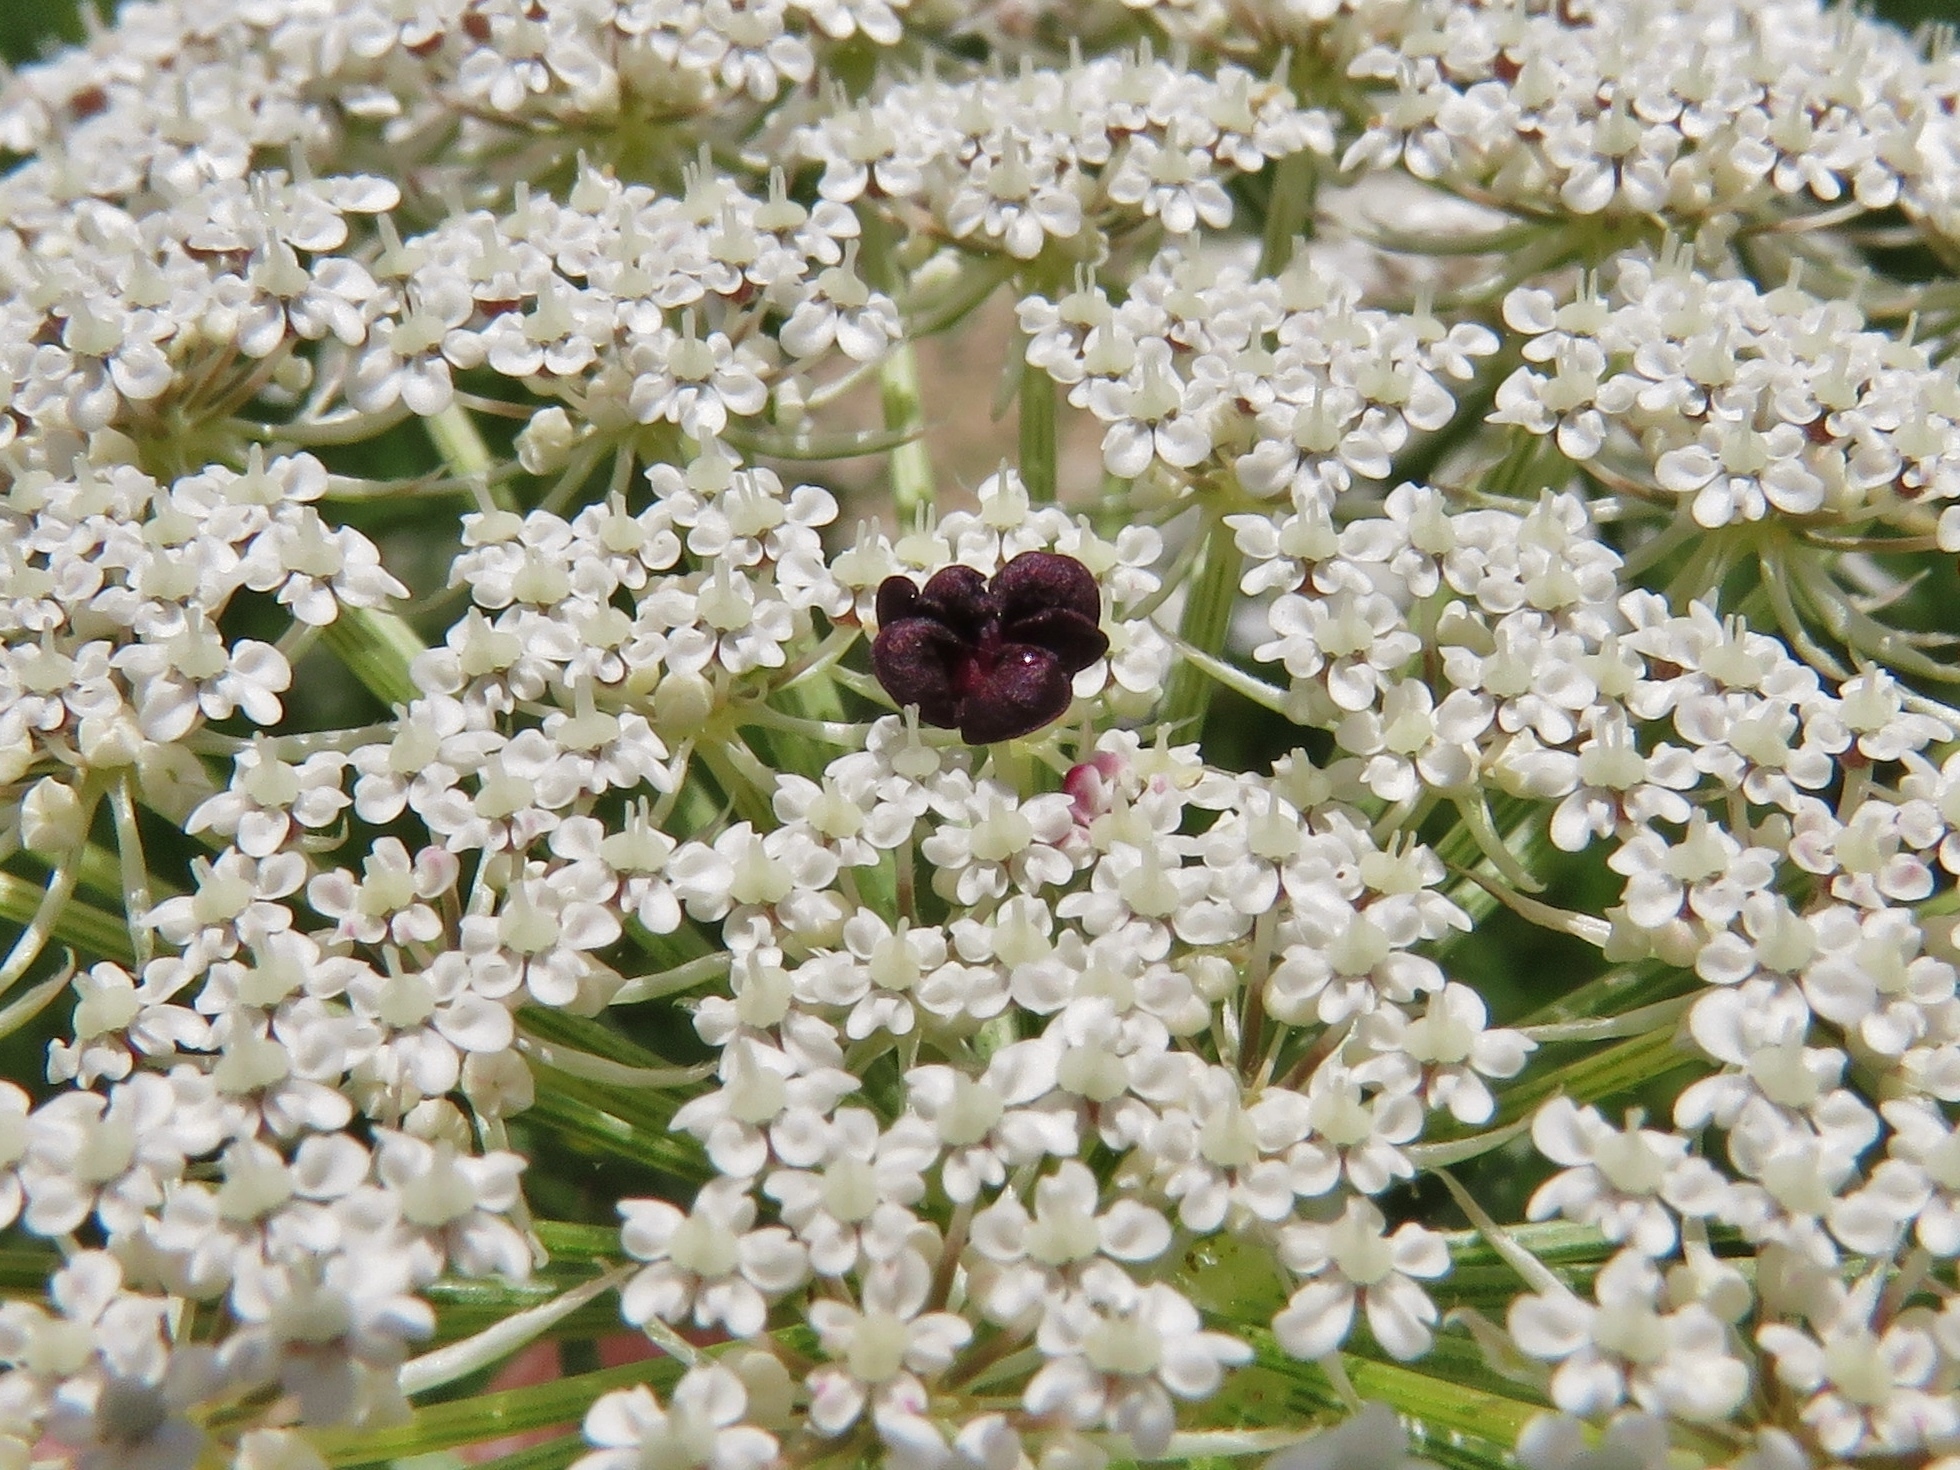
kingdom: Plantae
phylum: Tracheophyta
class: Magnoliopsida
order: Apiales
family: Apiaceae
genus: Daucus
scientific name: Daucus carota
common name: Wild carrot
